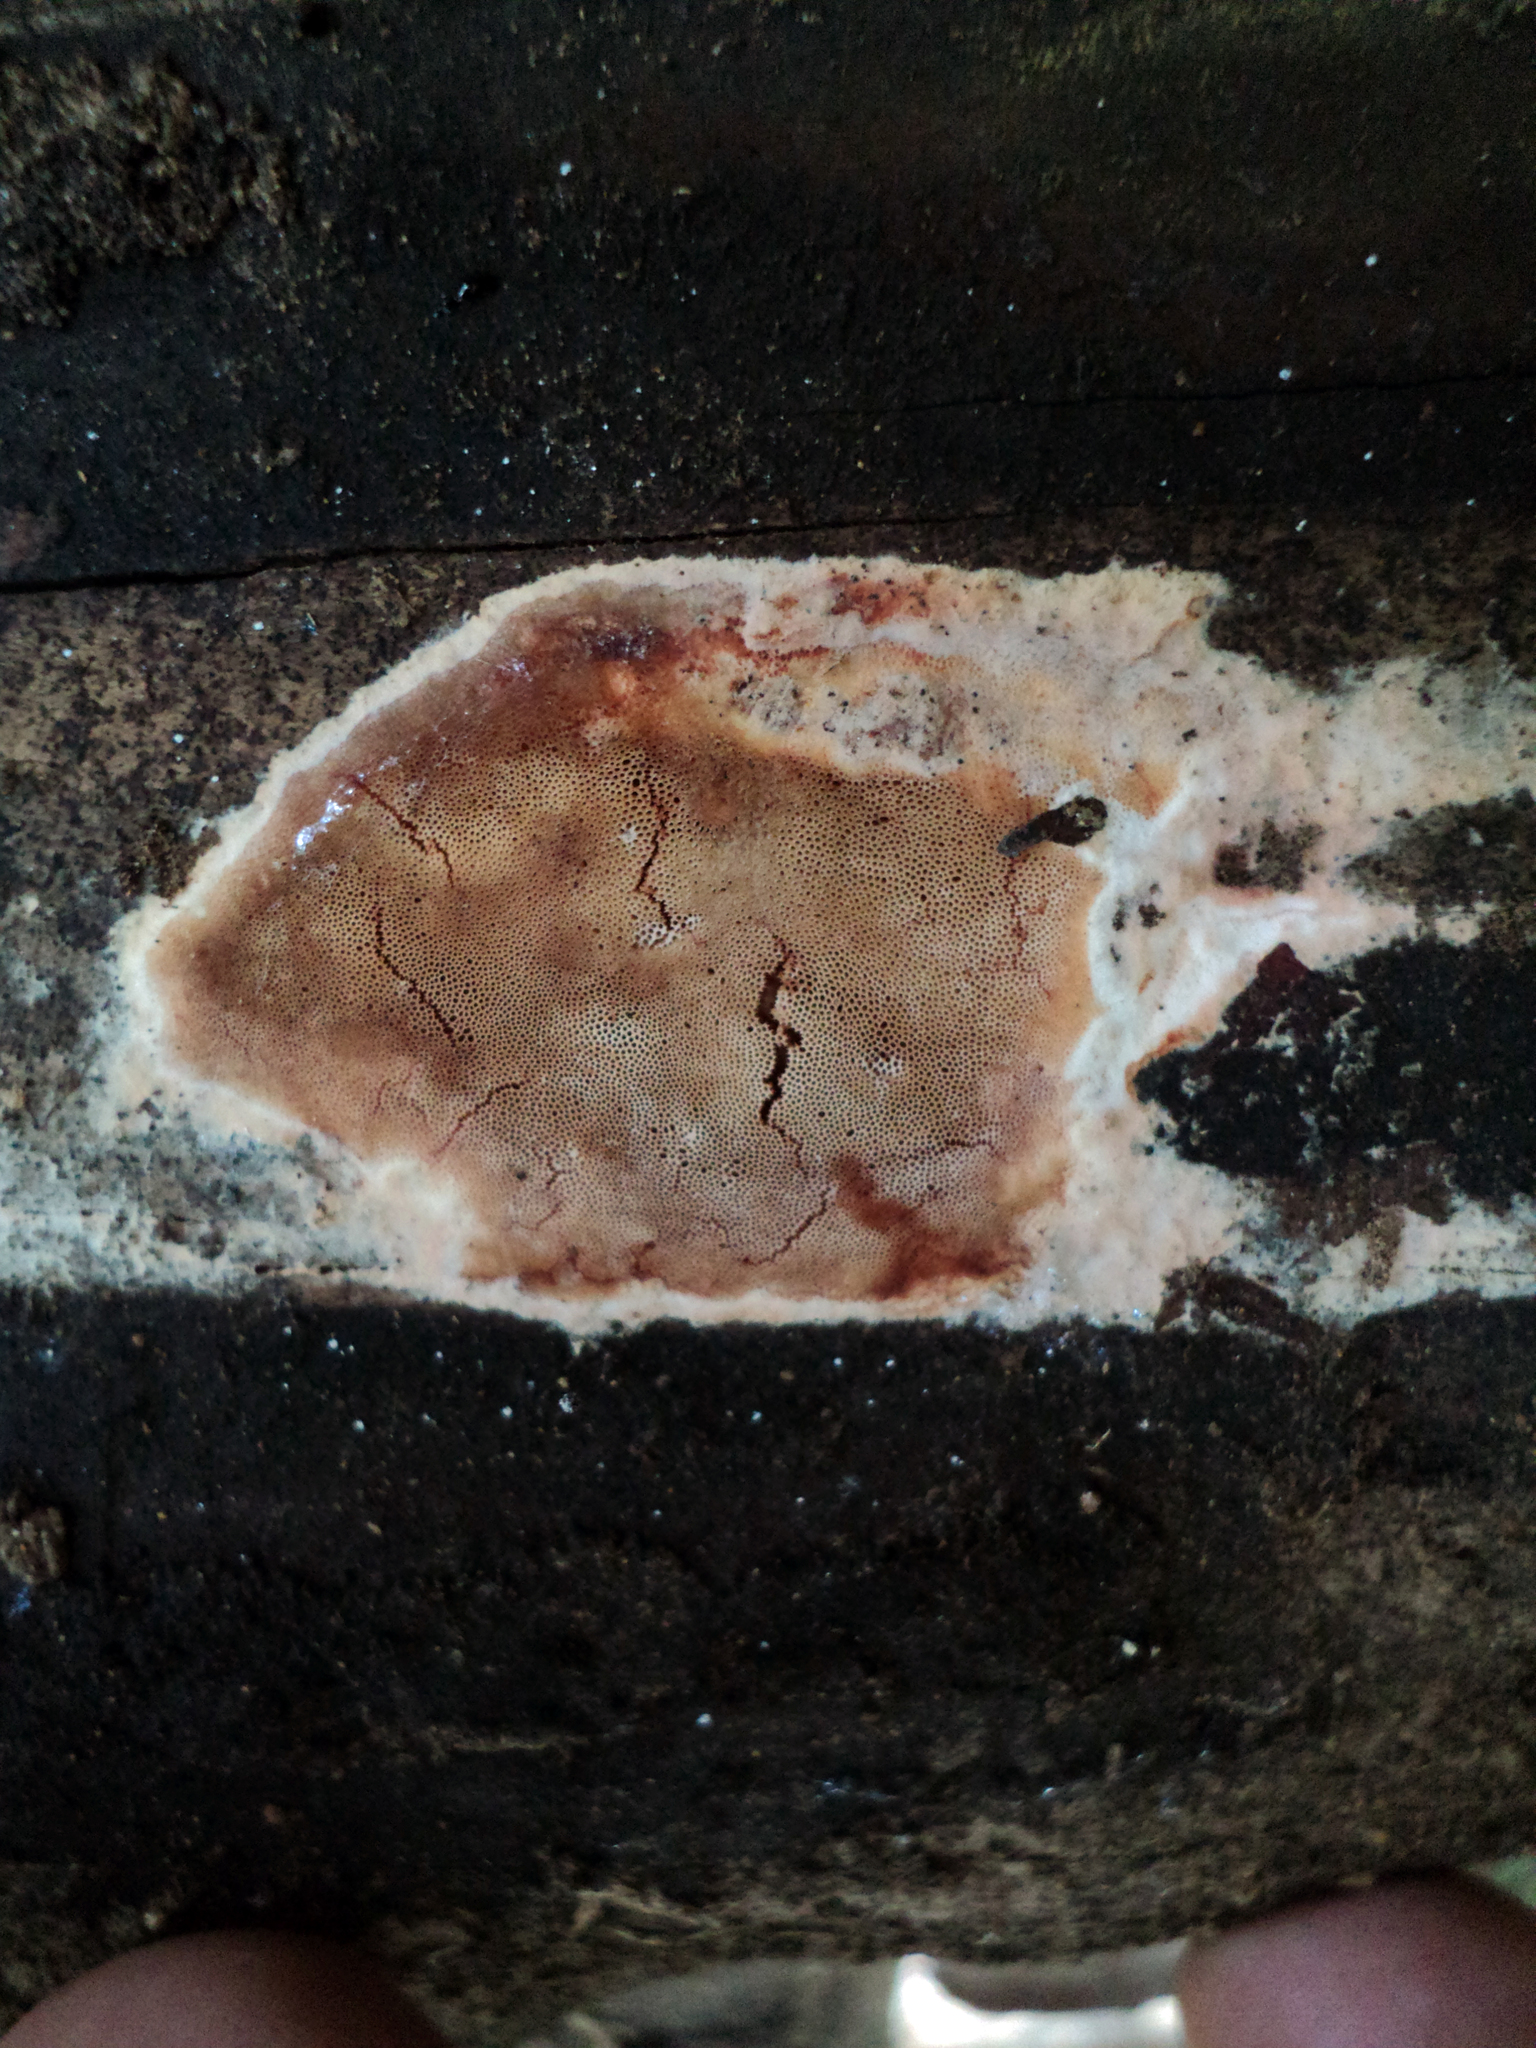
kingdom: Fungi
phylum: Basidiomycota
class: Agaricomycetes
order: Polyporales
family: Meruliaceae
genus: Mycoacia
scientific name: Mycoacia gilvescens
